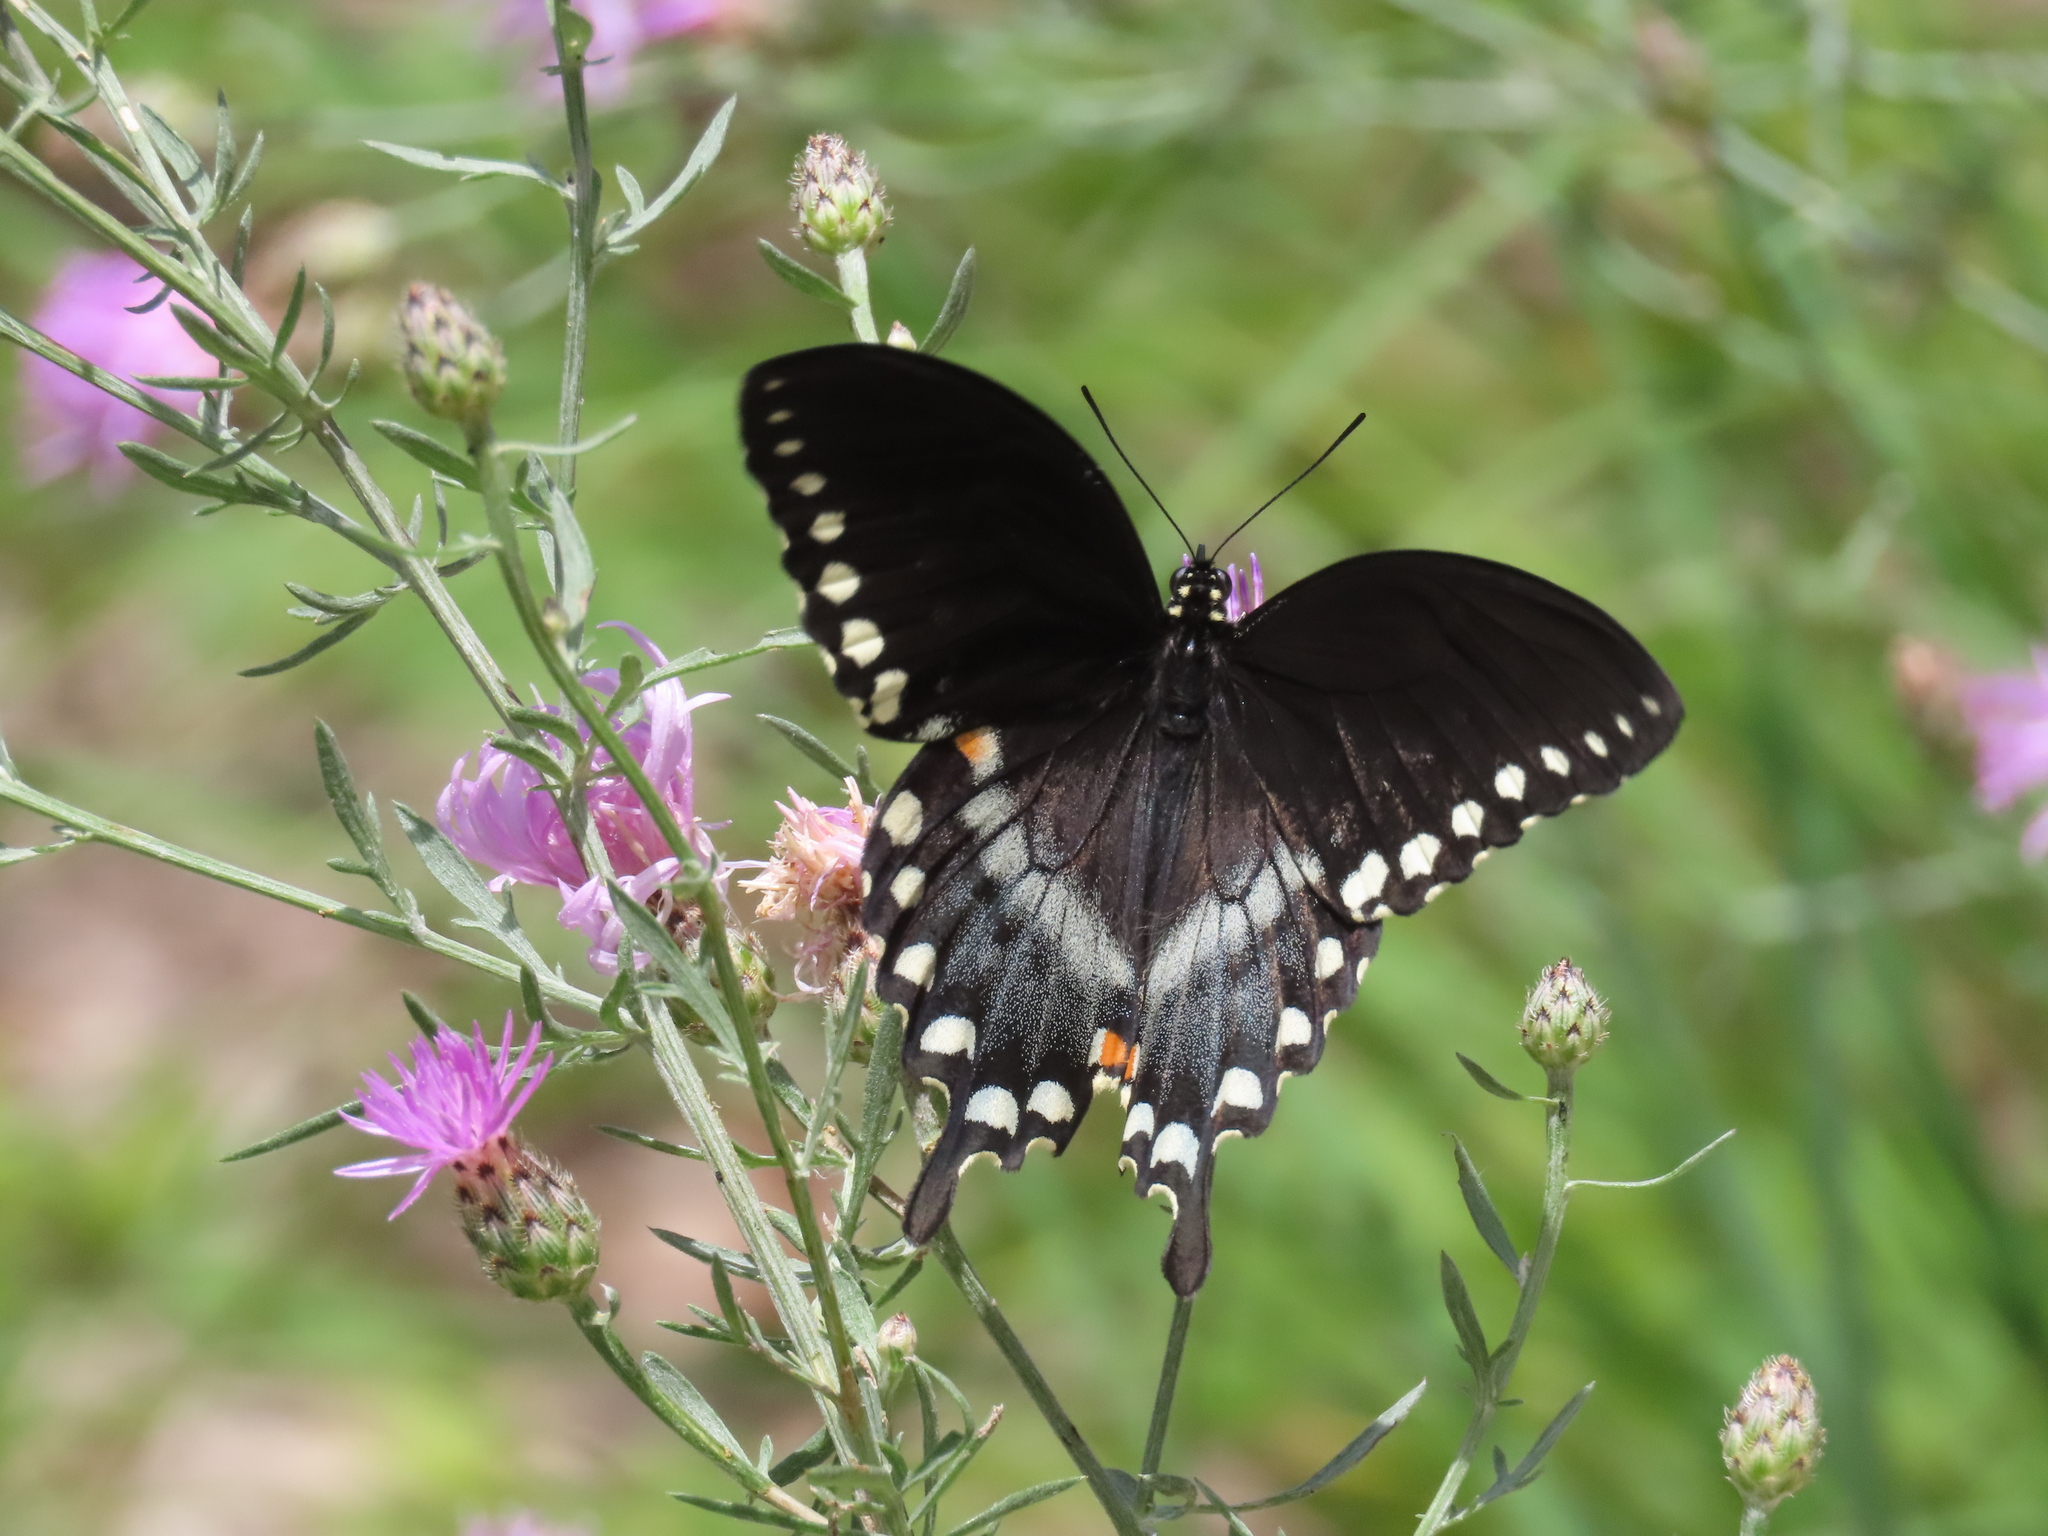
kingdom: Animalia
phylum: Arthropoda
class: Insecta
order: Lepidoptera
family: Papilionidae
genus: Papilio
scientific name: Papilio troilus
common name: Spicebush swallowtail
